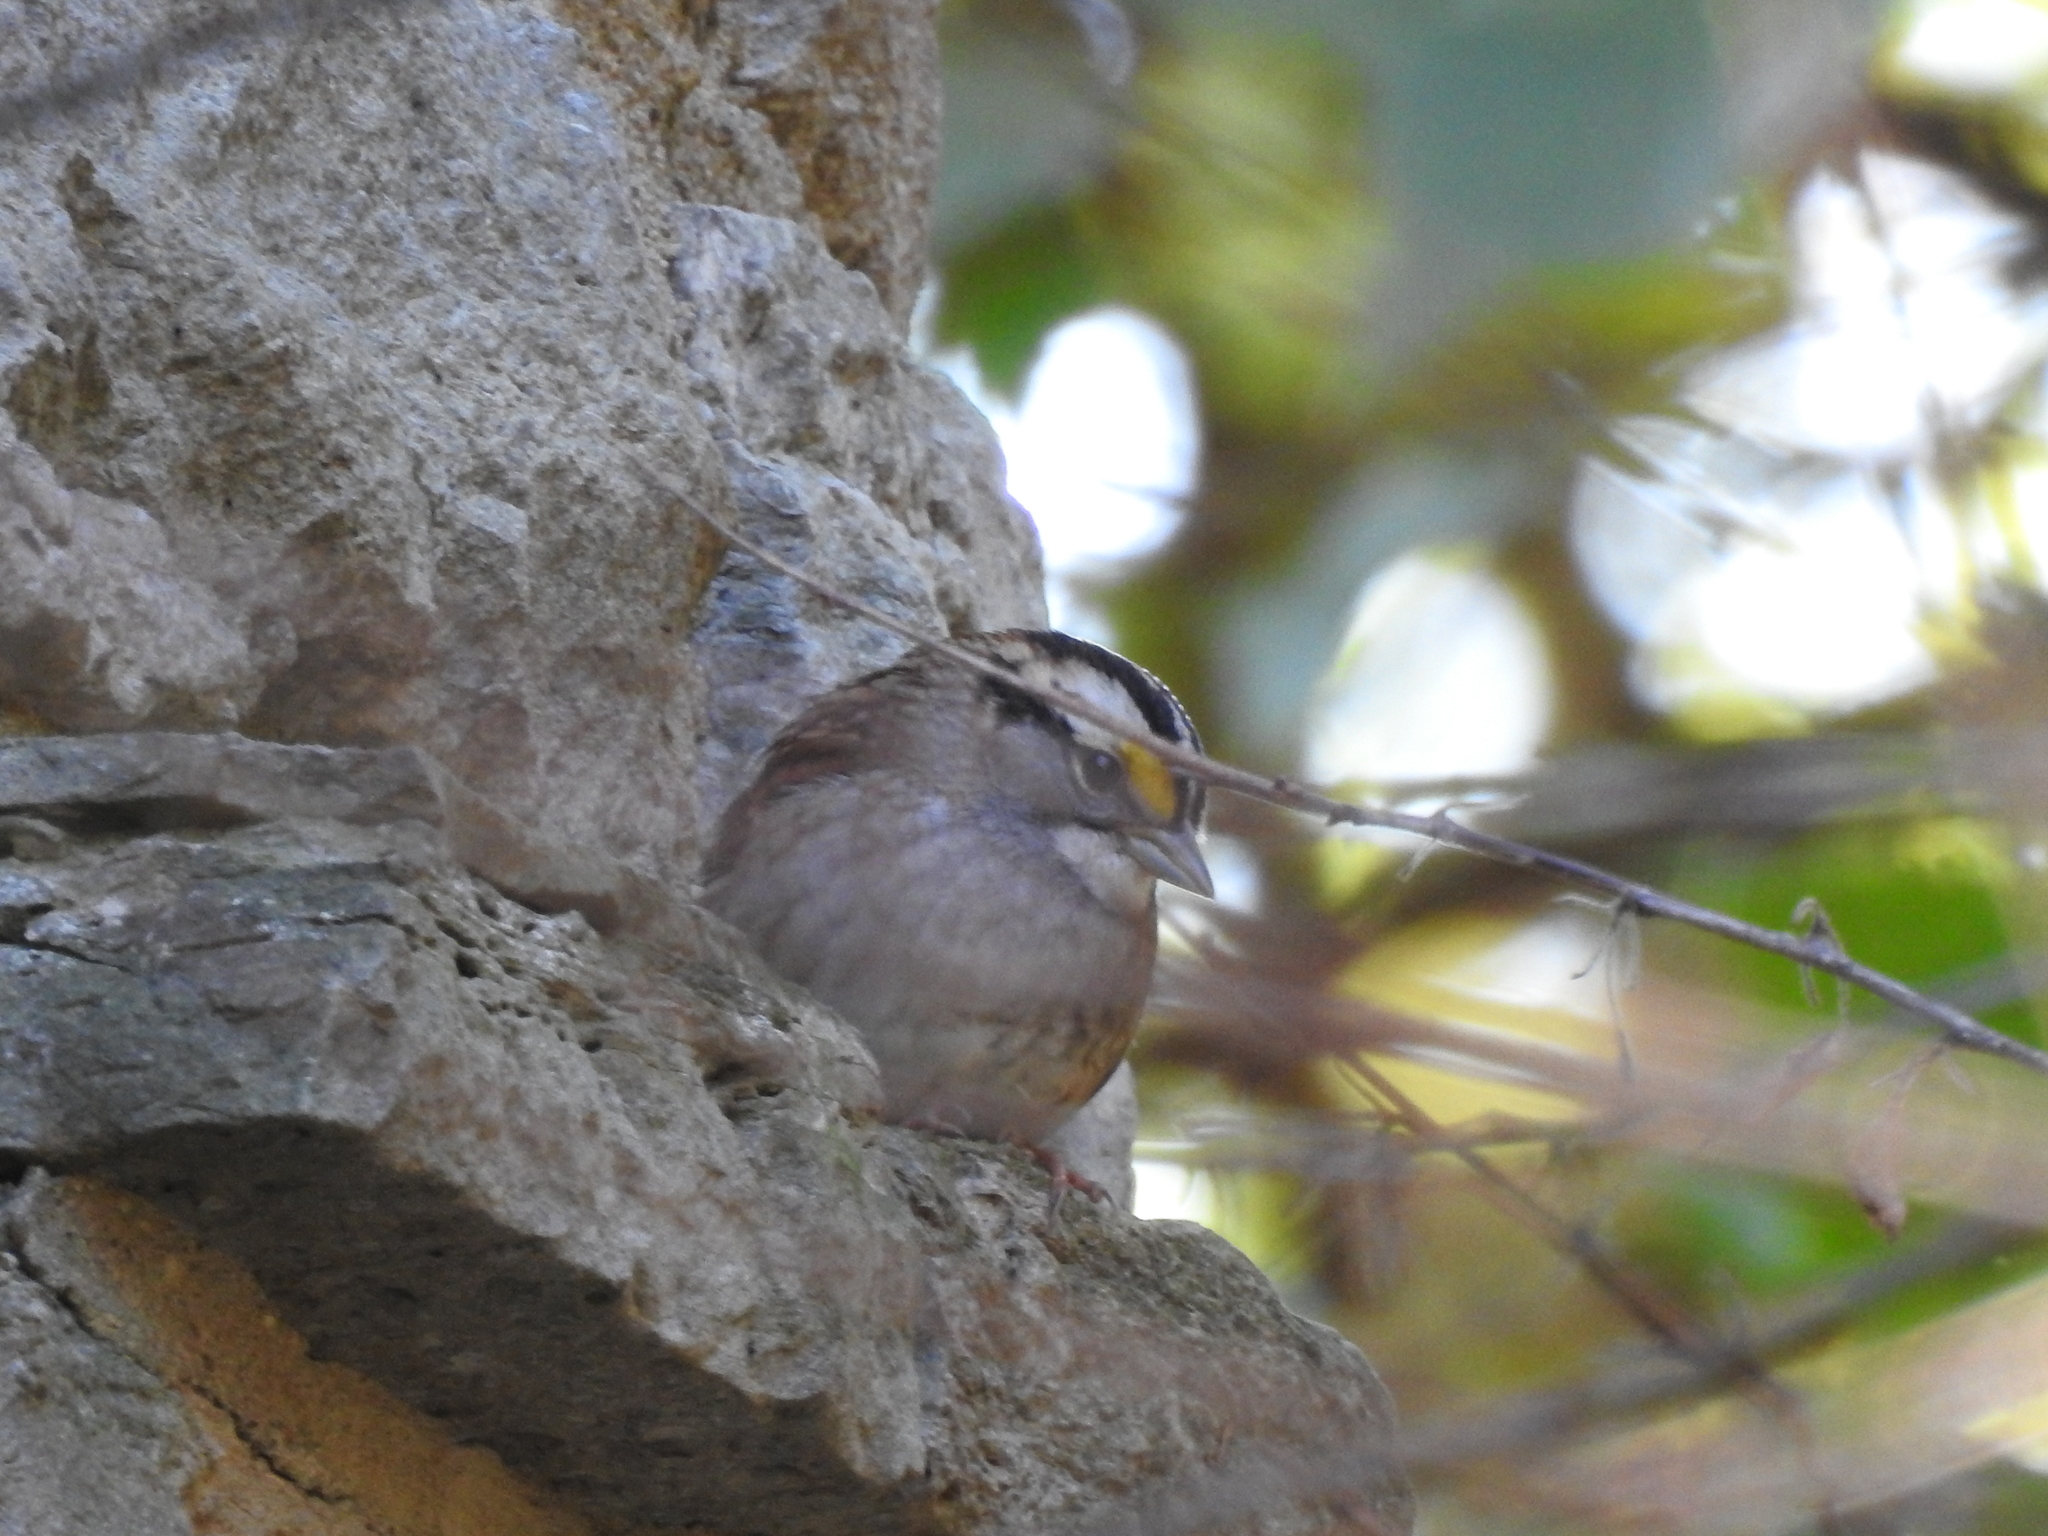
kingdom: Animalia
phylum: Chordata
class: Aves
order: Passeriformes
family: Passerellidae
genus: Zonotrichia
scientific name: Zonotrichia albicollis
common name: White-throated sparrow
